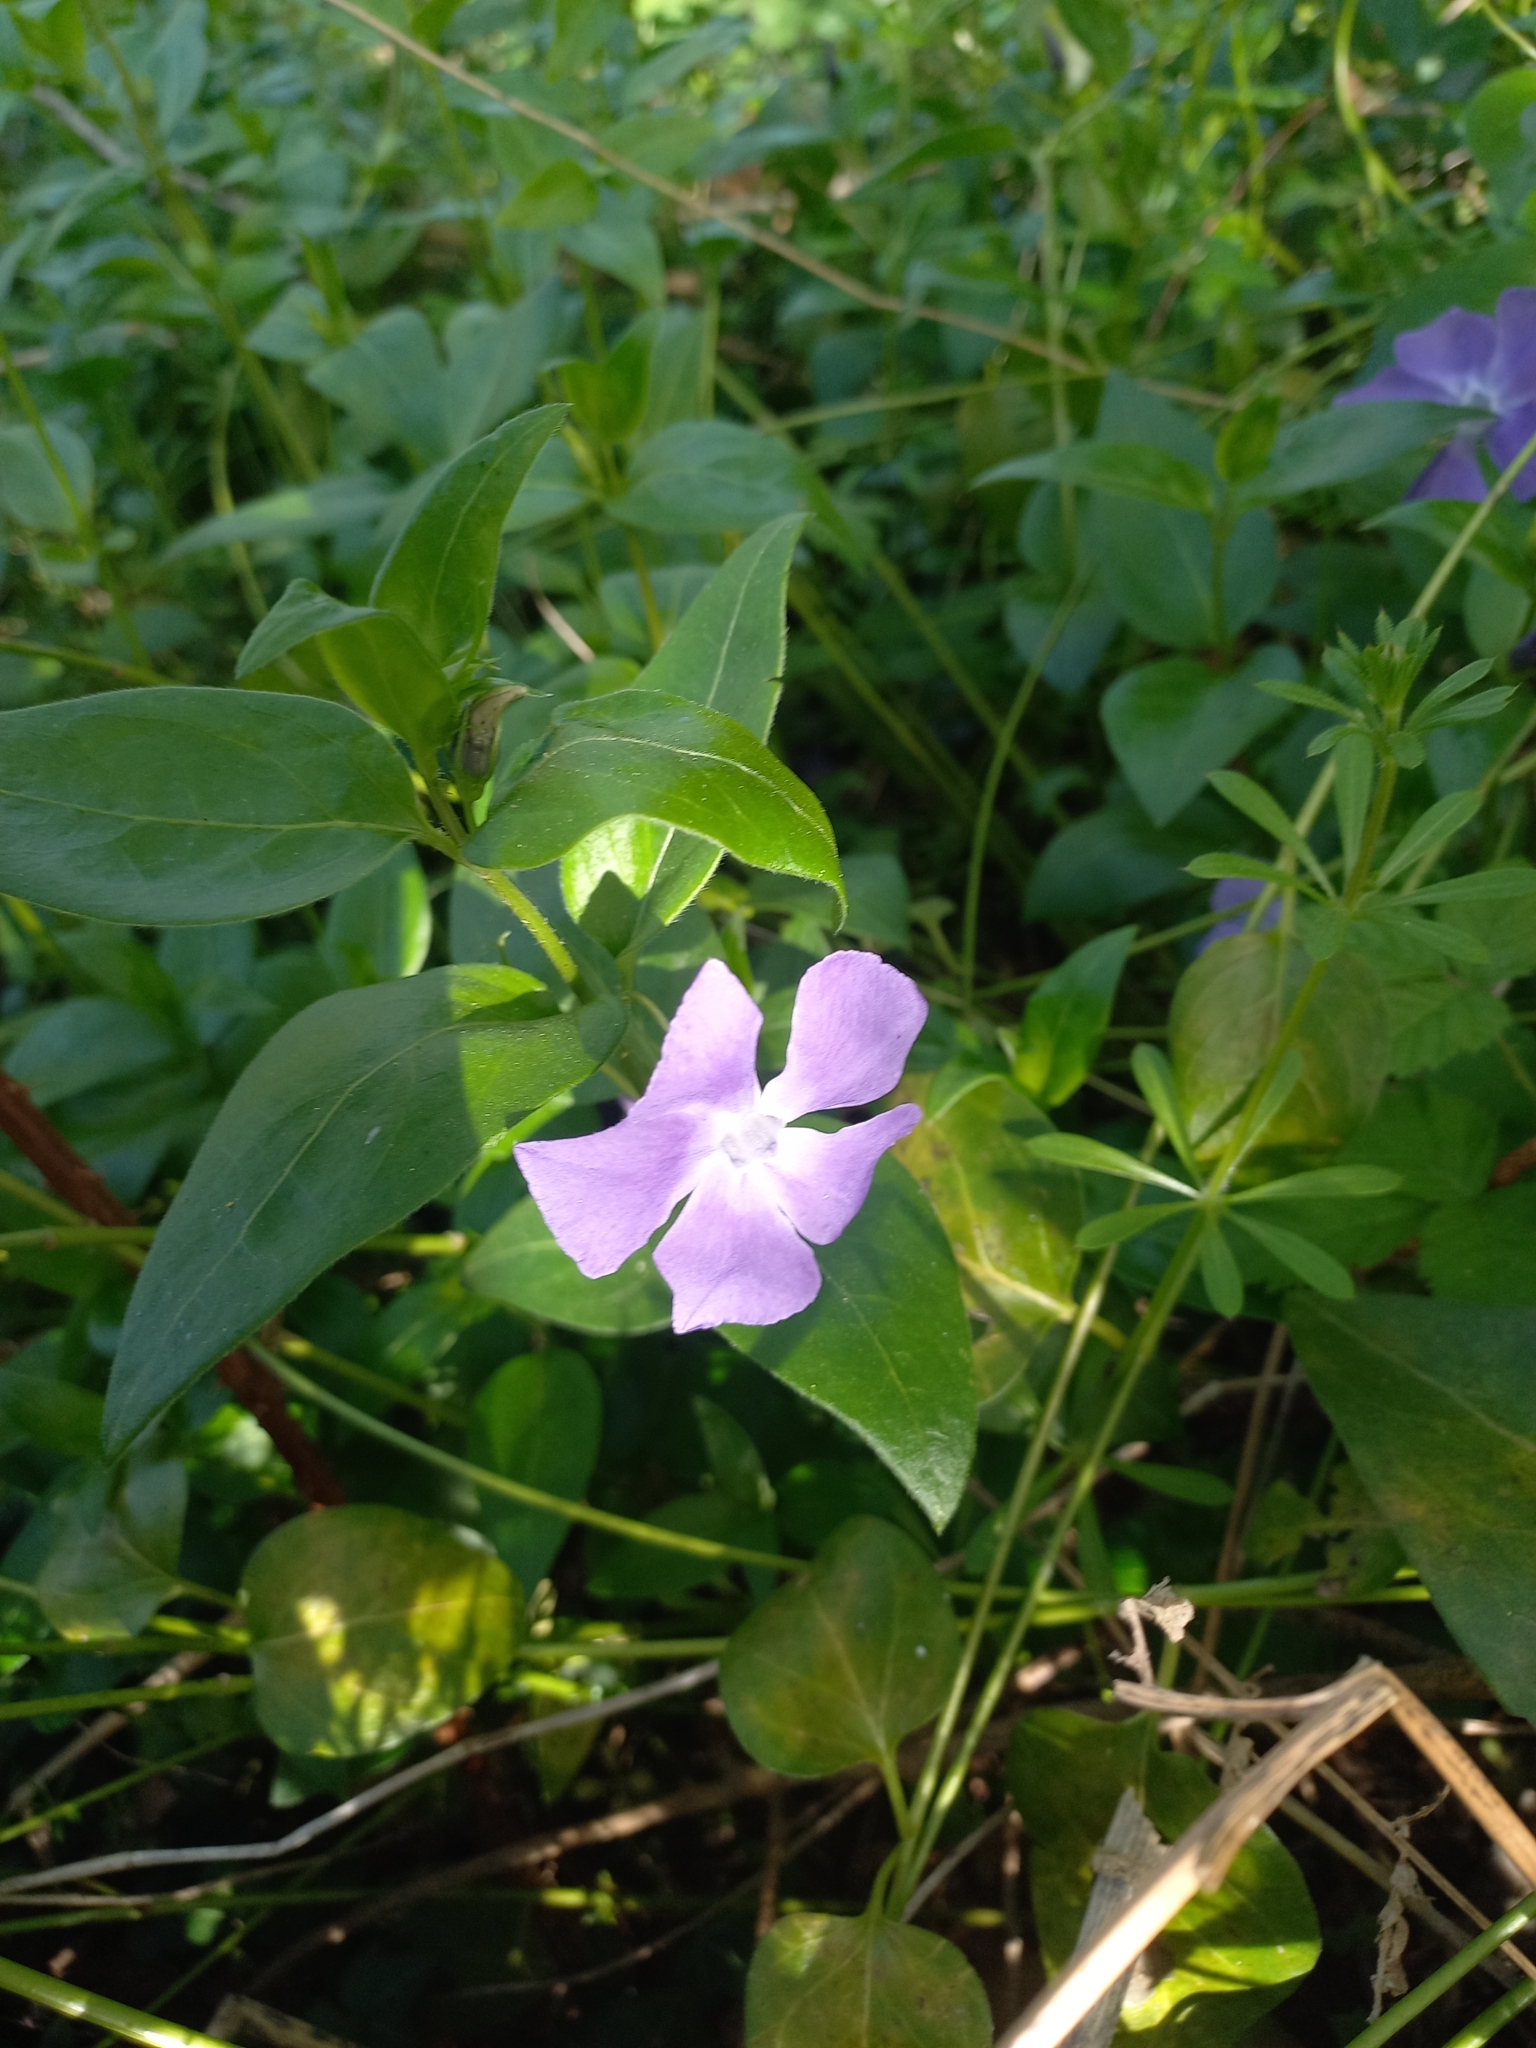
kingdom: Plantae
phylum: Tracheophyta
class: Magnoliopsida
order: Gentianales
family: Apocynaceae
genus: Vinca
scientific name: Vinca major
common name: Greater periwinkle
